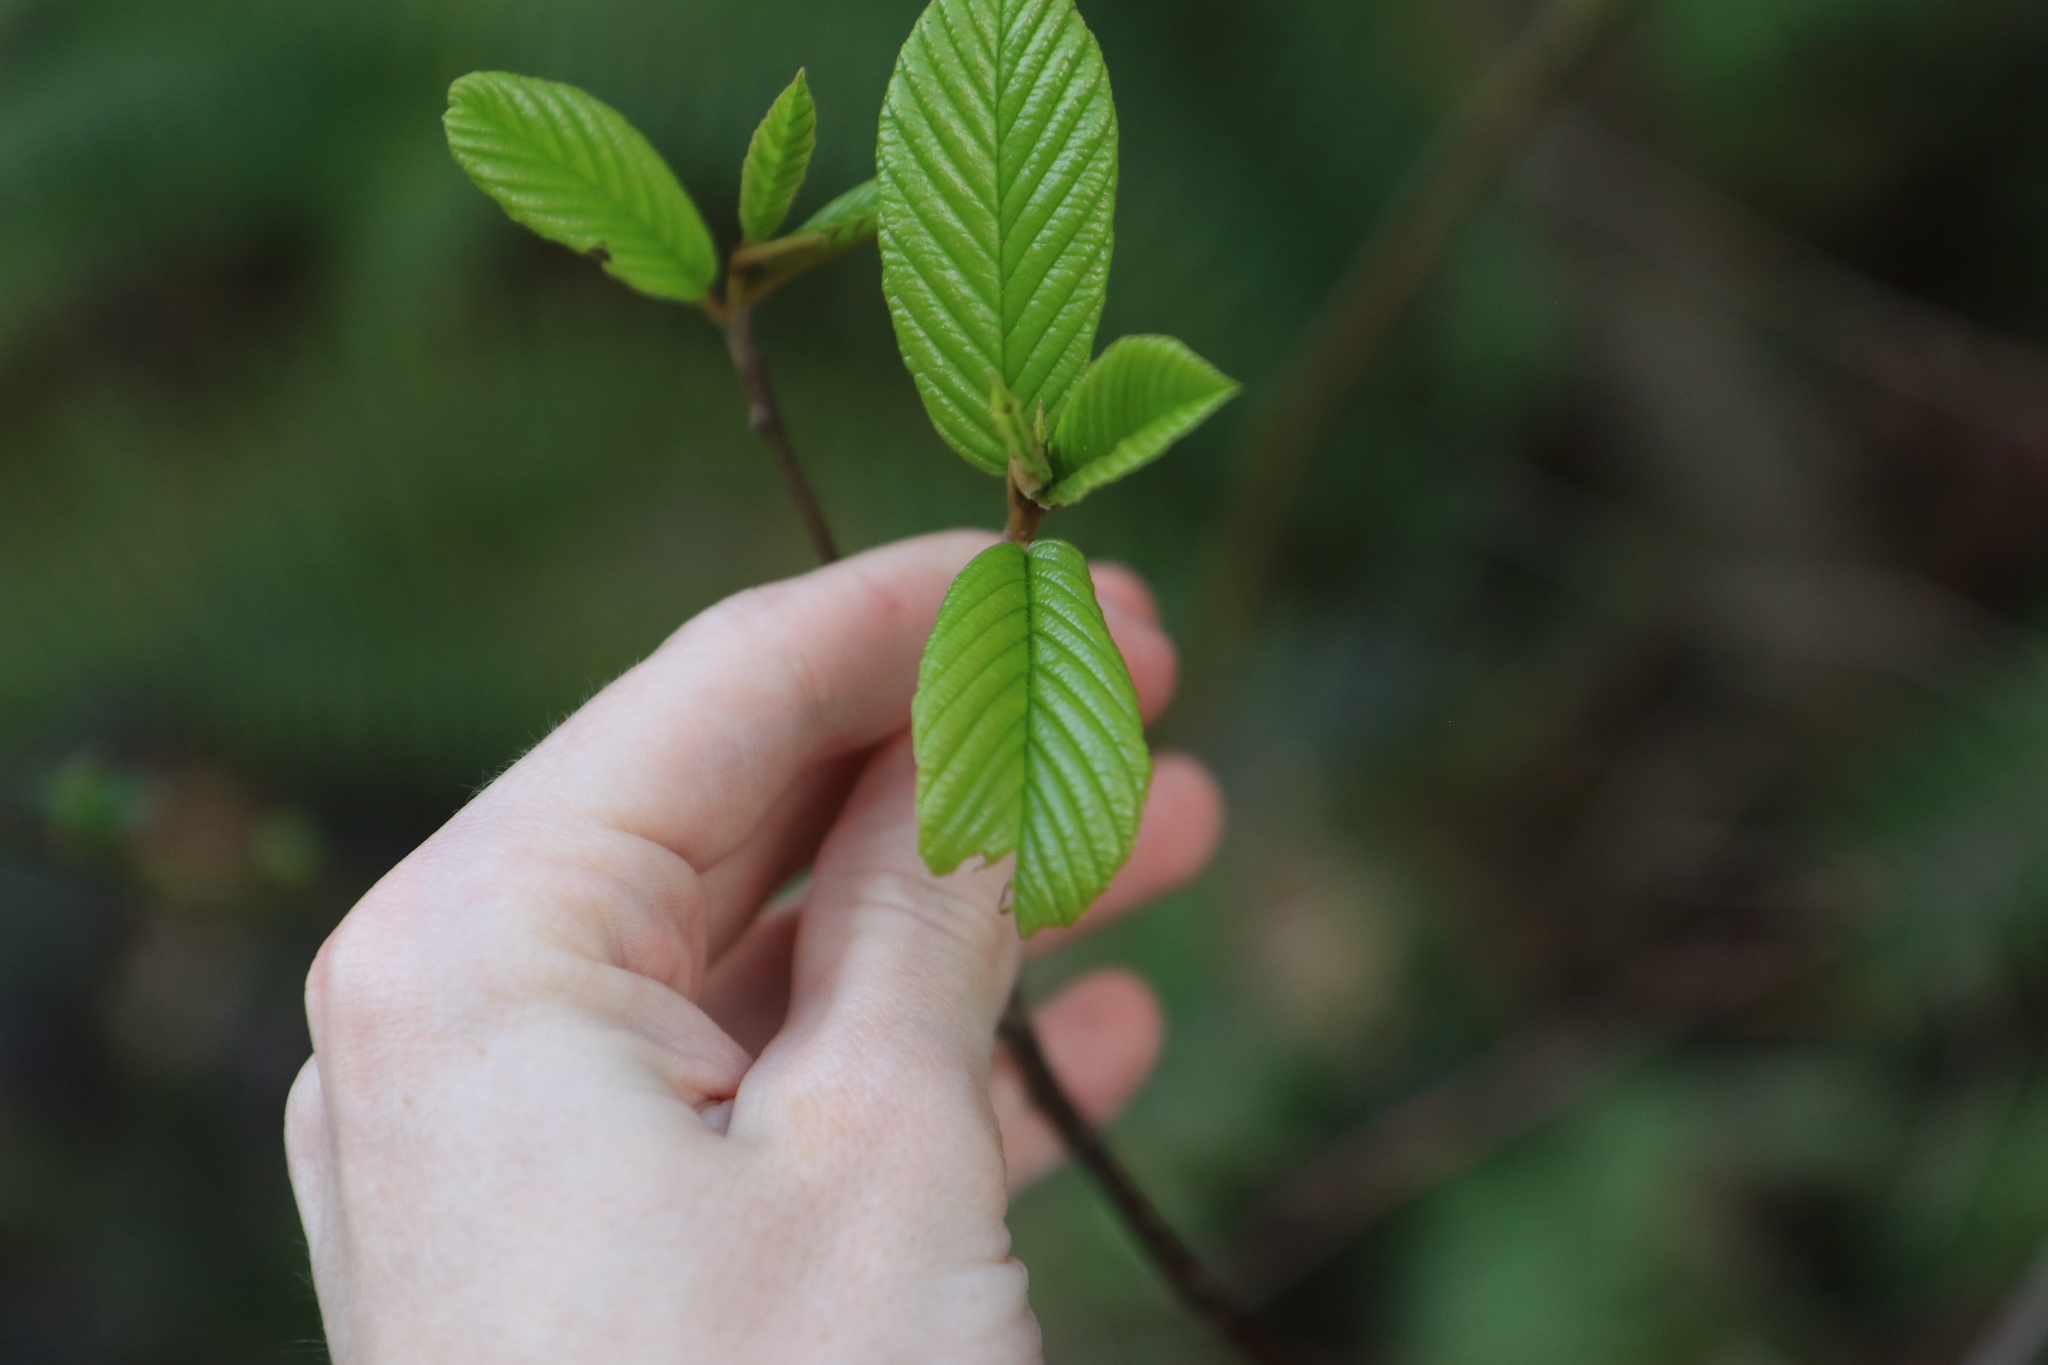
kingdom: Plantae
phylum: Tracheophyta
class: Magnoliopsida
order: Rosales
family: Rhamnaceae
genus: Frangula
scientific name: Frangula purshiana
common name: Cascara buckthorn
